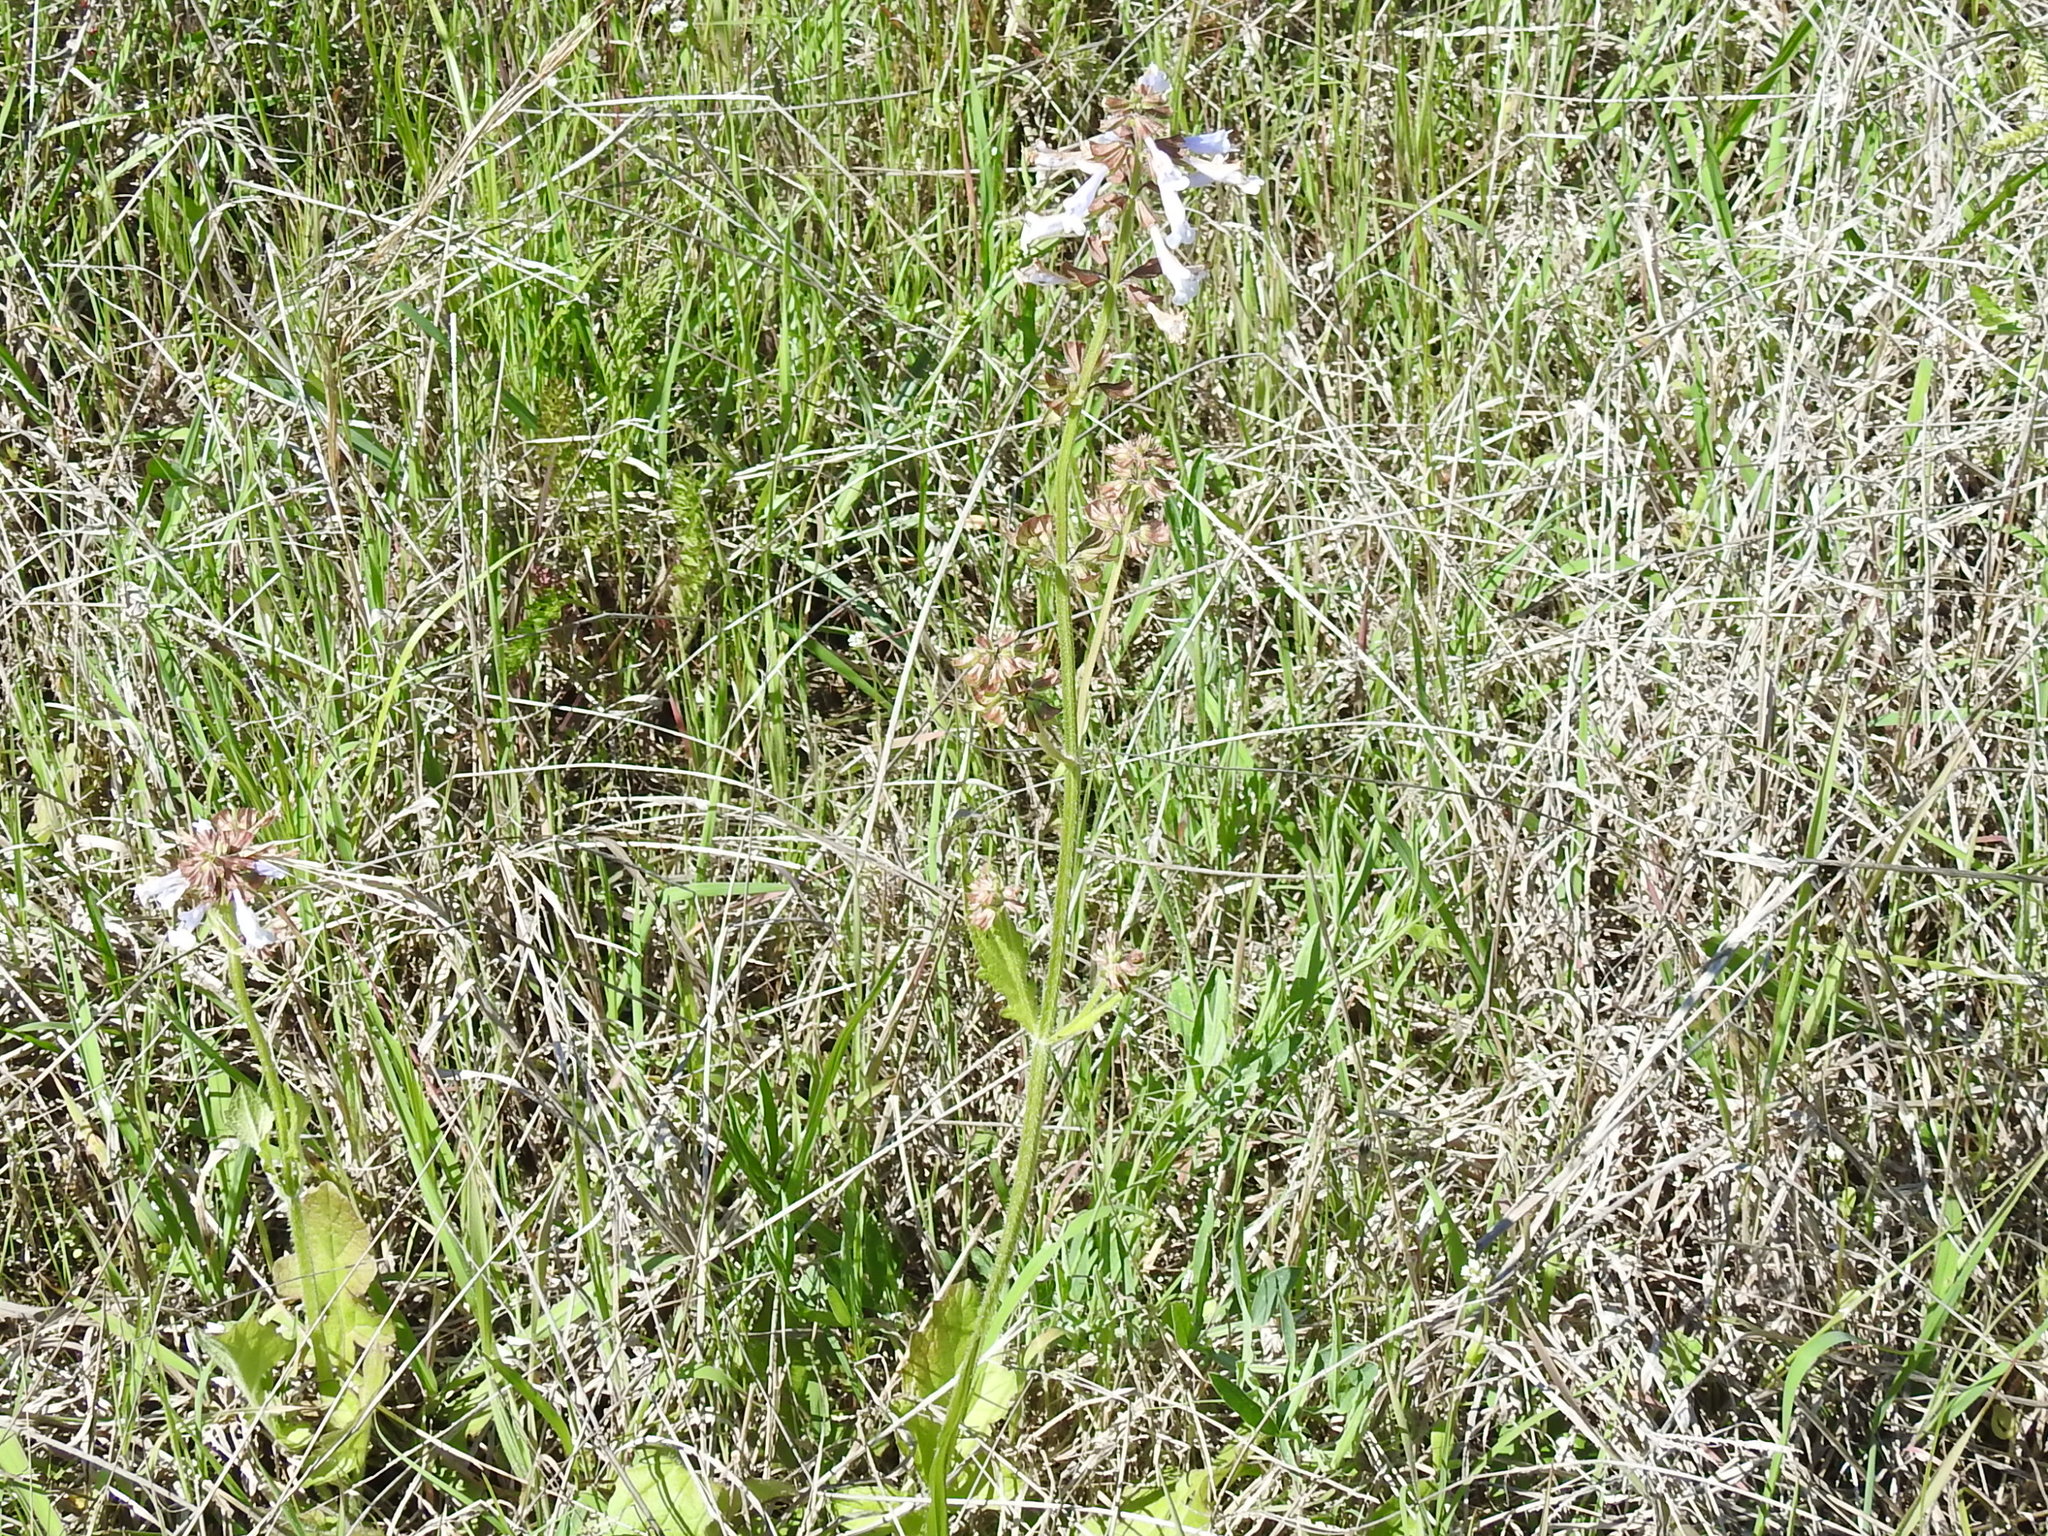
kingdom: Plantae
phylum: Tracheophyta
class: Magnoliopsida
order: Lamiales
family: Lamiaceae
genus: Salvia
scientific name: Salvia lyrata
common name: Cancerweed
